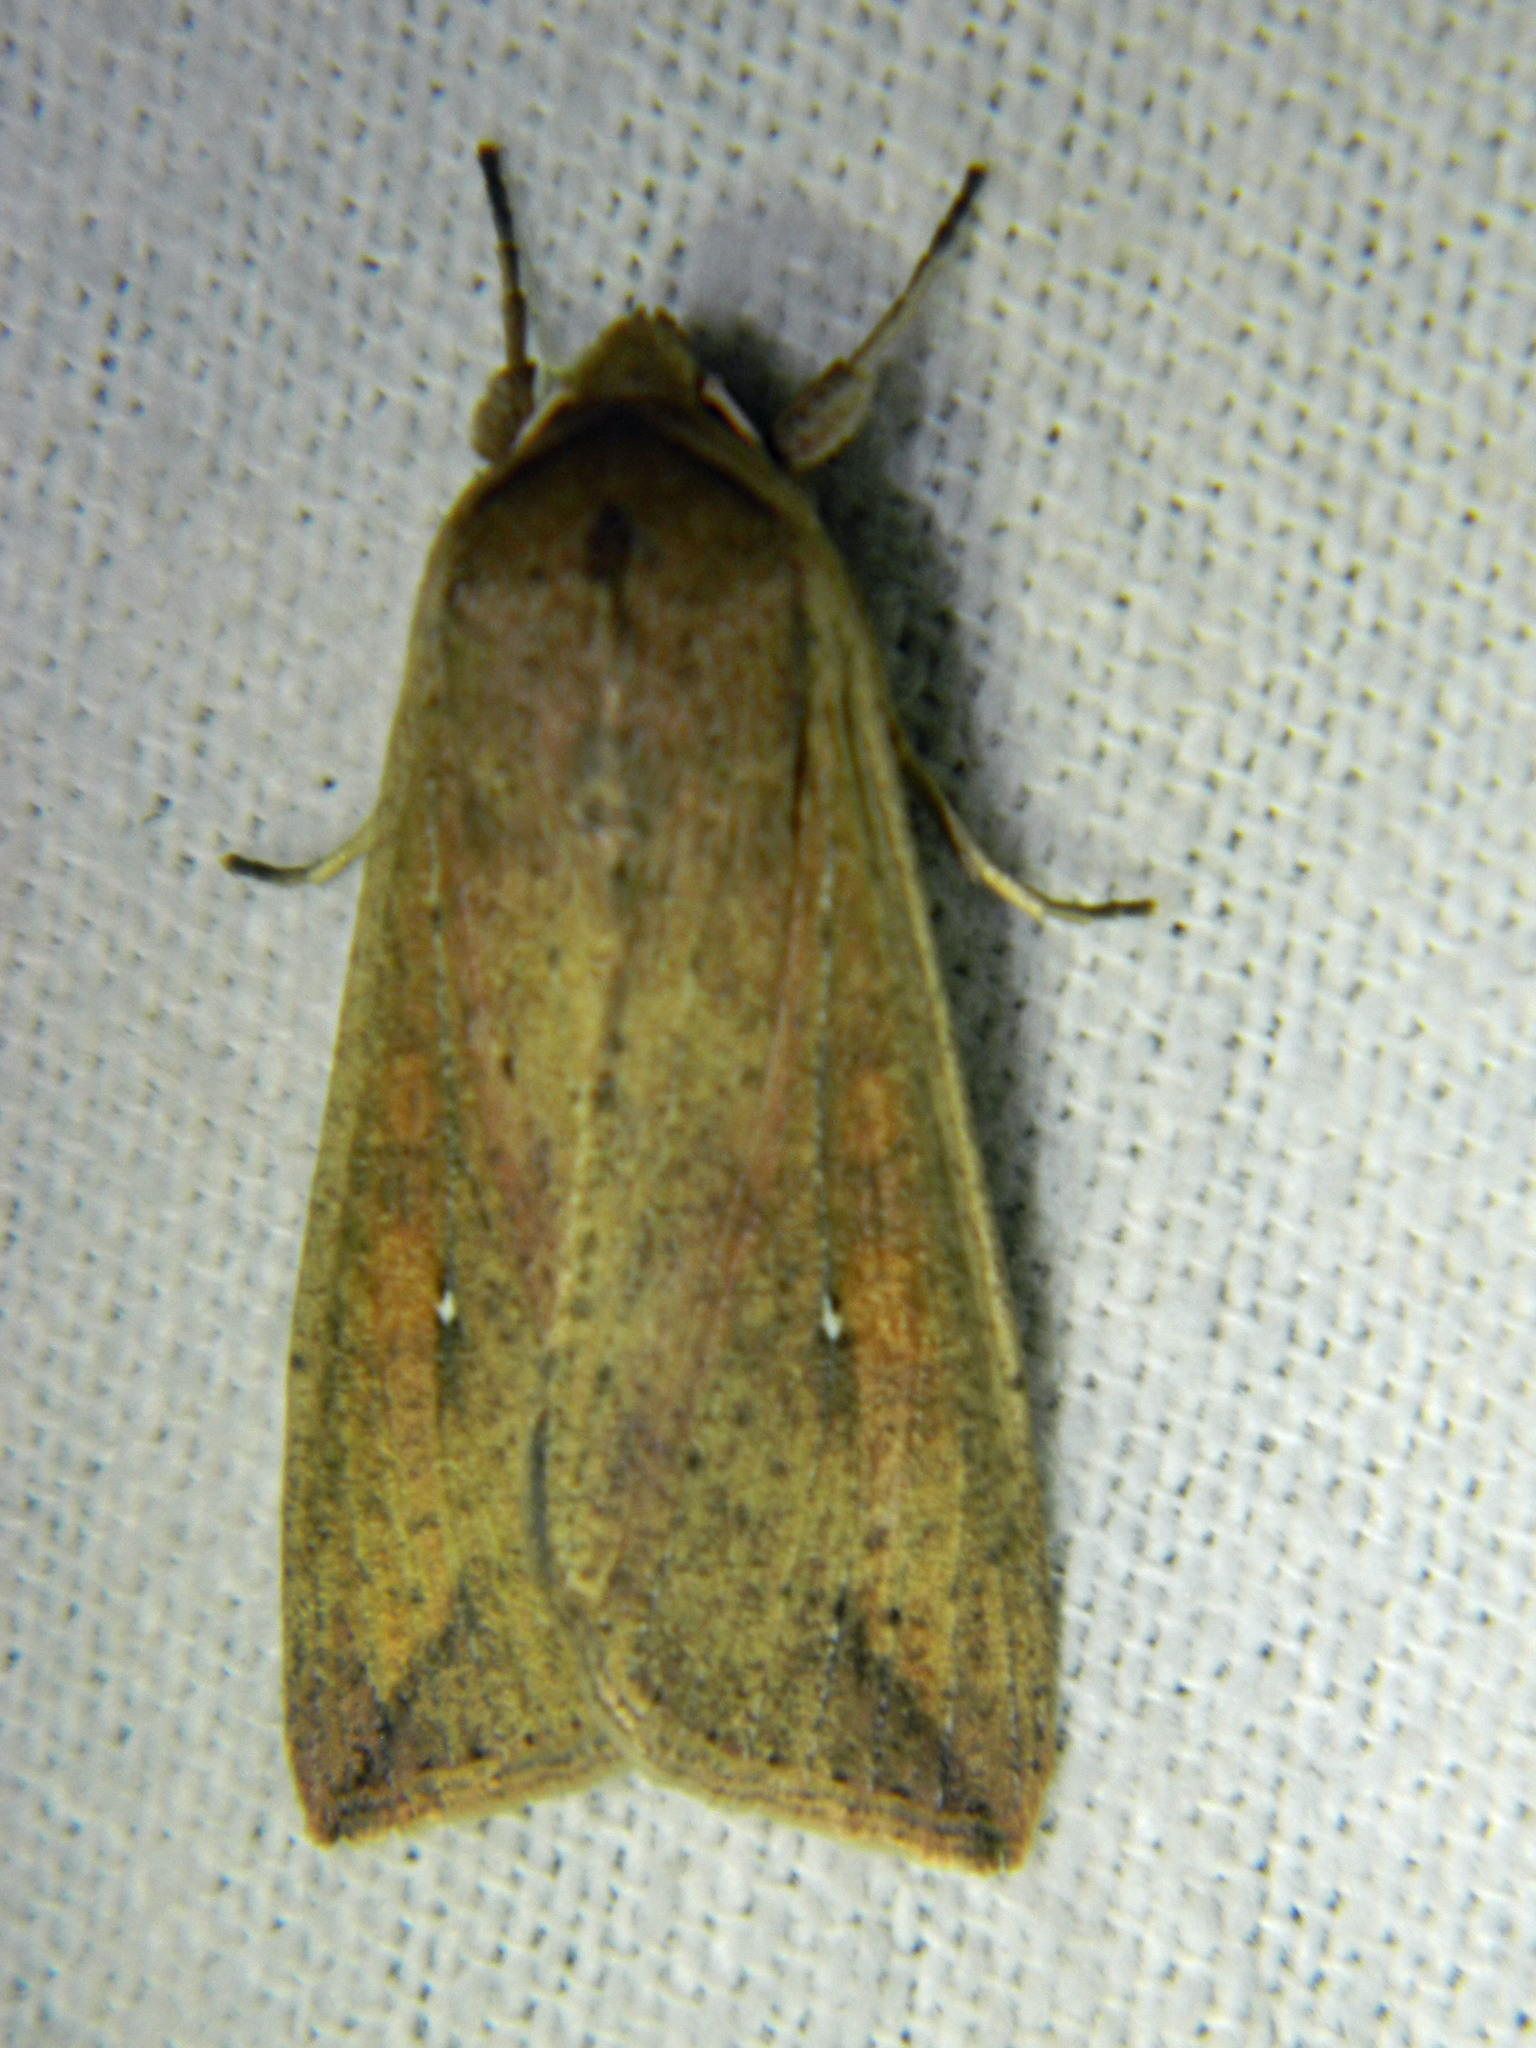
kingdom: Animalia
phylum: Arthropoda
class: Insecta
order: Lepidoptera
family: Noctuidae
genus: Mythimna
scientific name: Mythimna unipuncta
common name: White-speck
